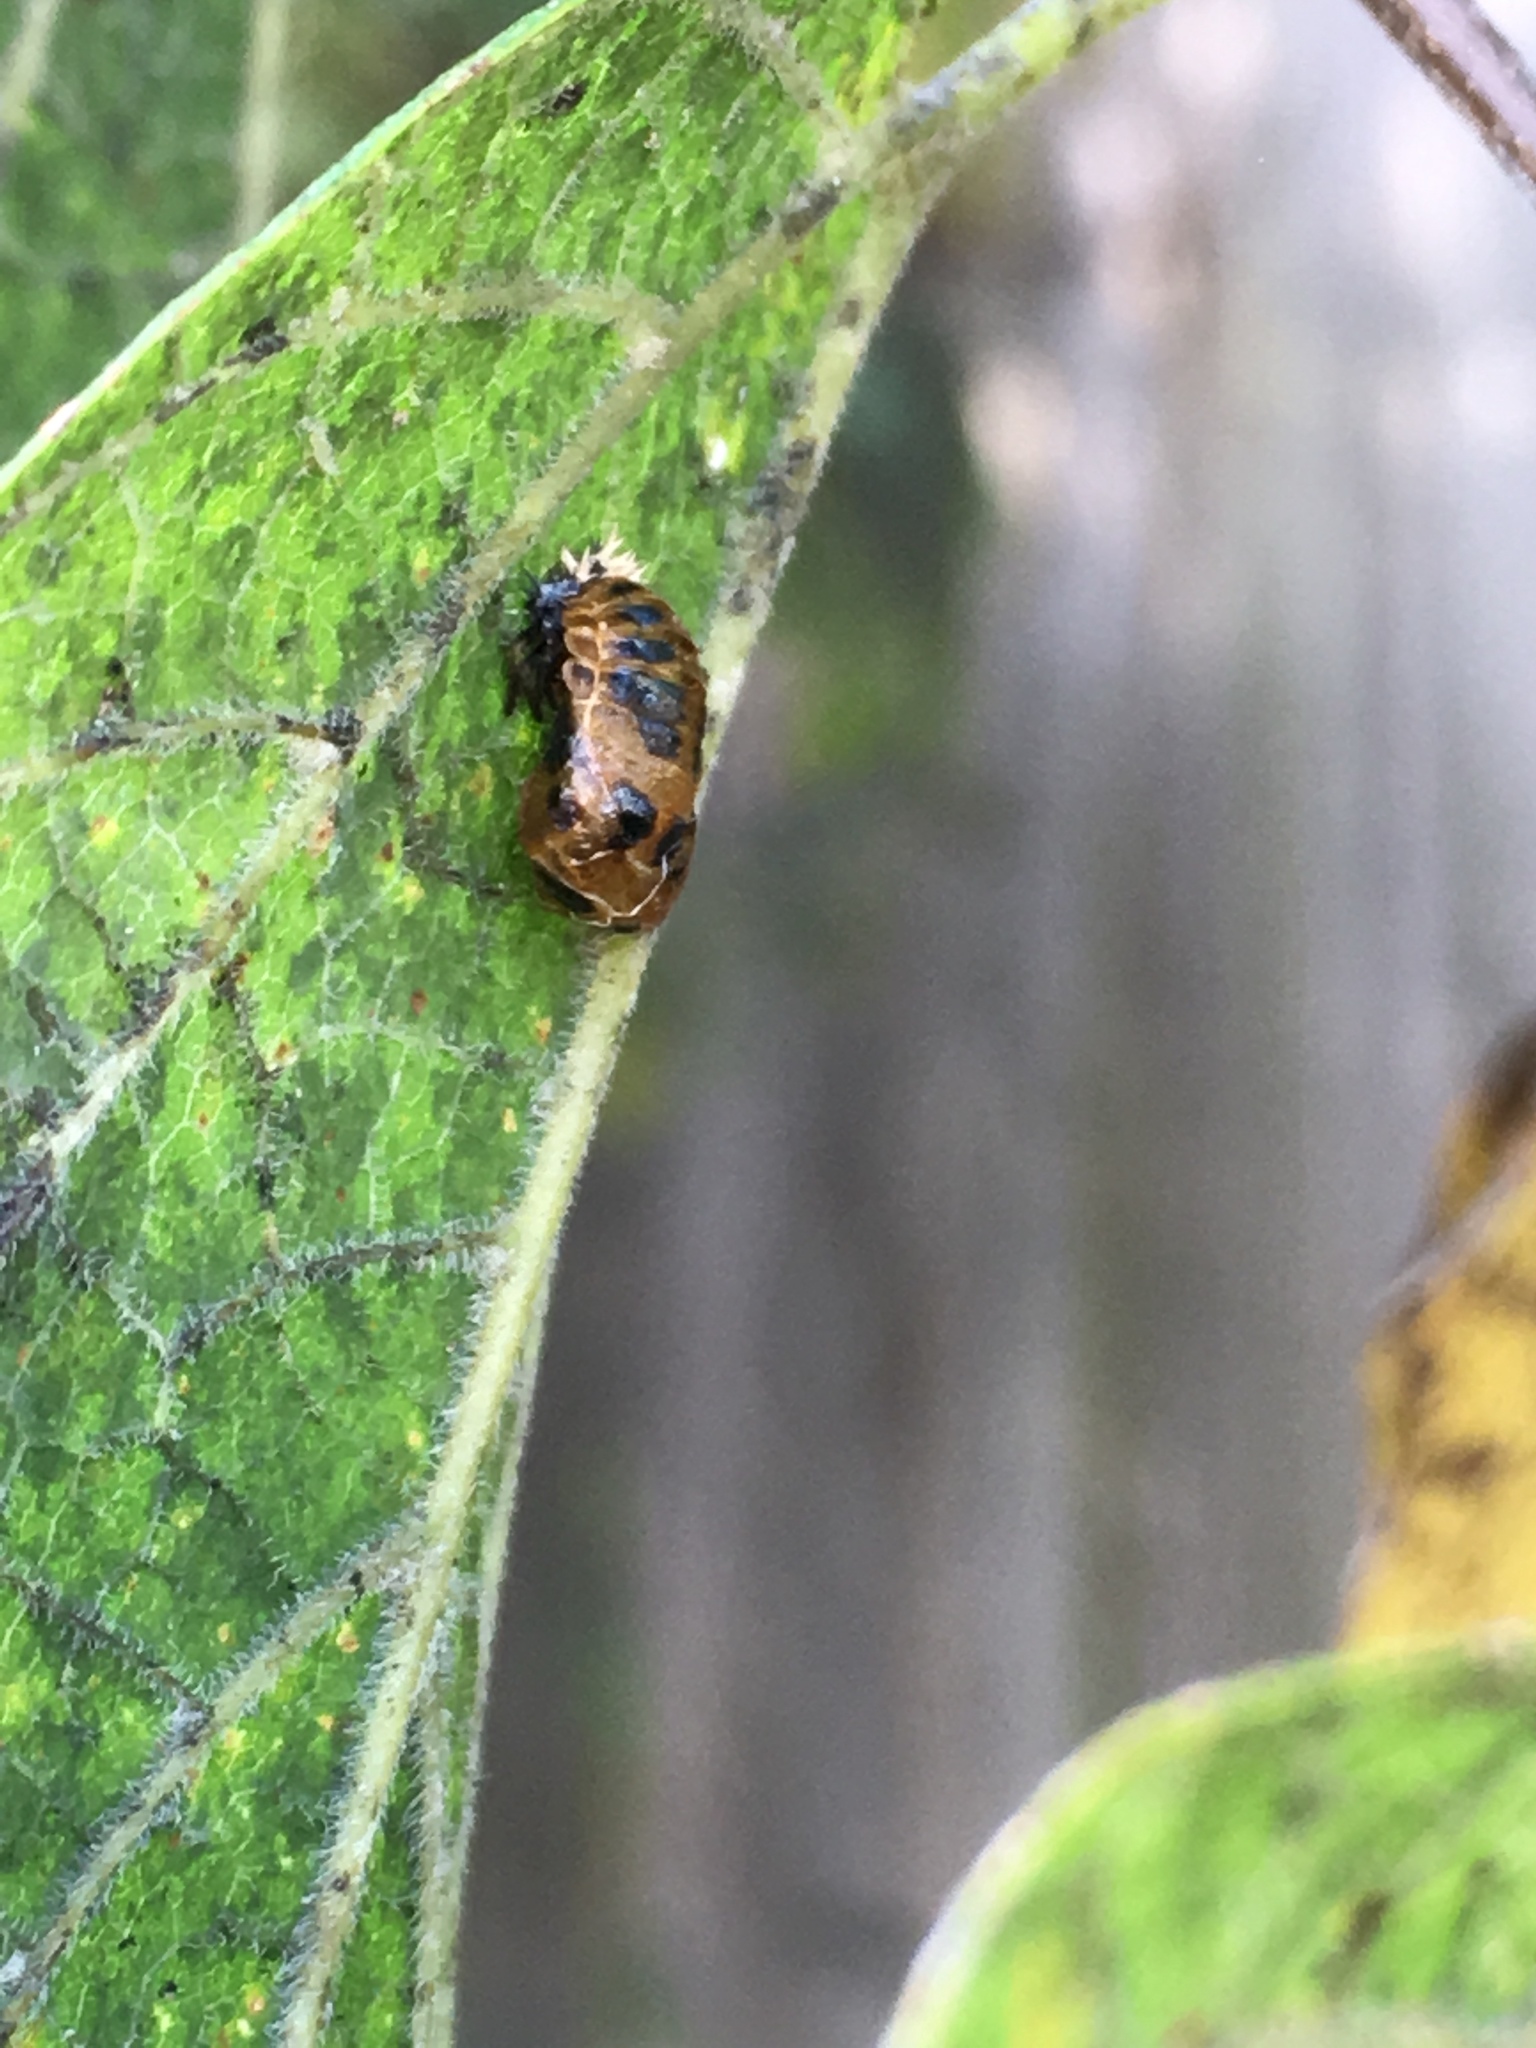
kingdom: Animalia
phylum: Arthropoda
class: Insecta
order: Coleoptera
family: Coccinellidae
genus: Harmonia
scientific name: Harmonia axyridis
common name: Harlequin ladybird
